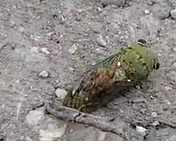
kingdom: Animalia
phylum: Arthropoda
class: Insecta
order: Hemiptera
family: Cicadidae
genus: Neotibicen
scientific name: Neotibicen superbus
